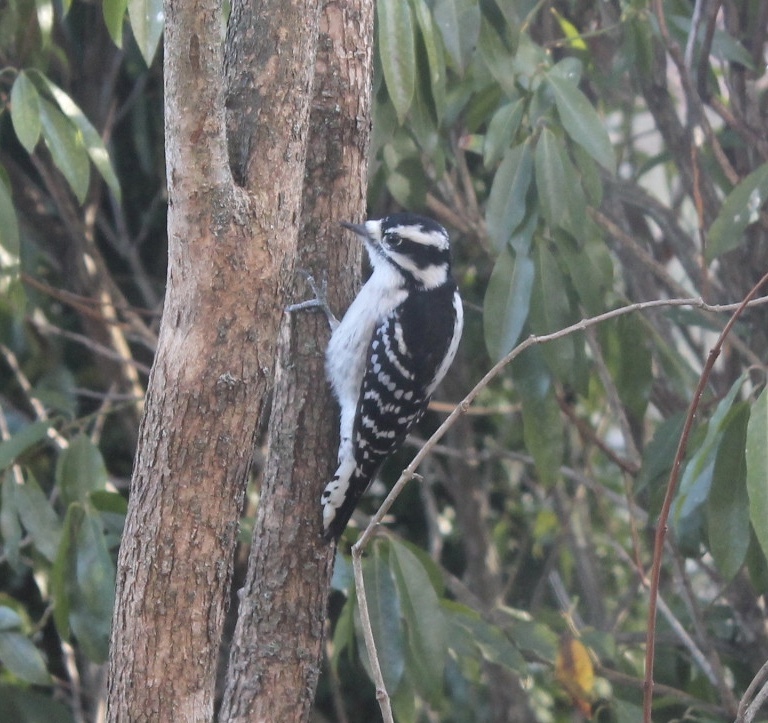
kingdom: Animalia
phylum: Chordata
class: Aves
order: Piciformes
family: Picidae
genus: Dryobates
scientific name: Dryobates pubescens
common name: Downy woodpecker
